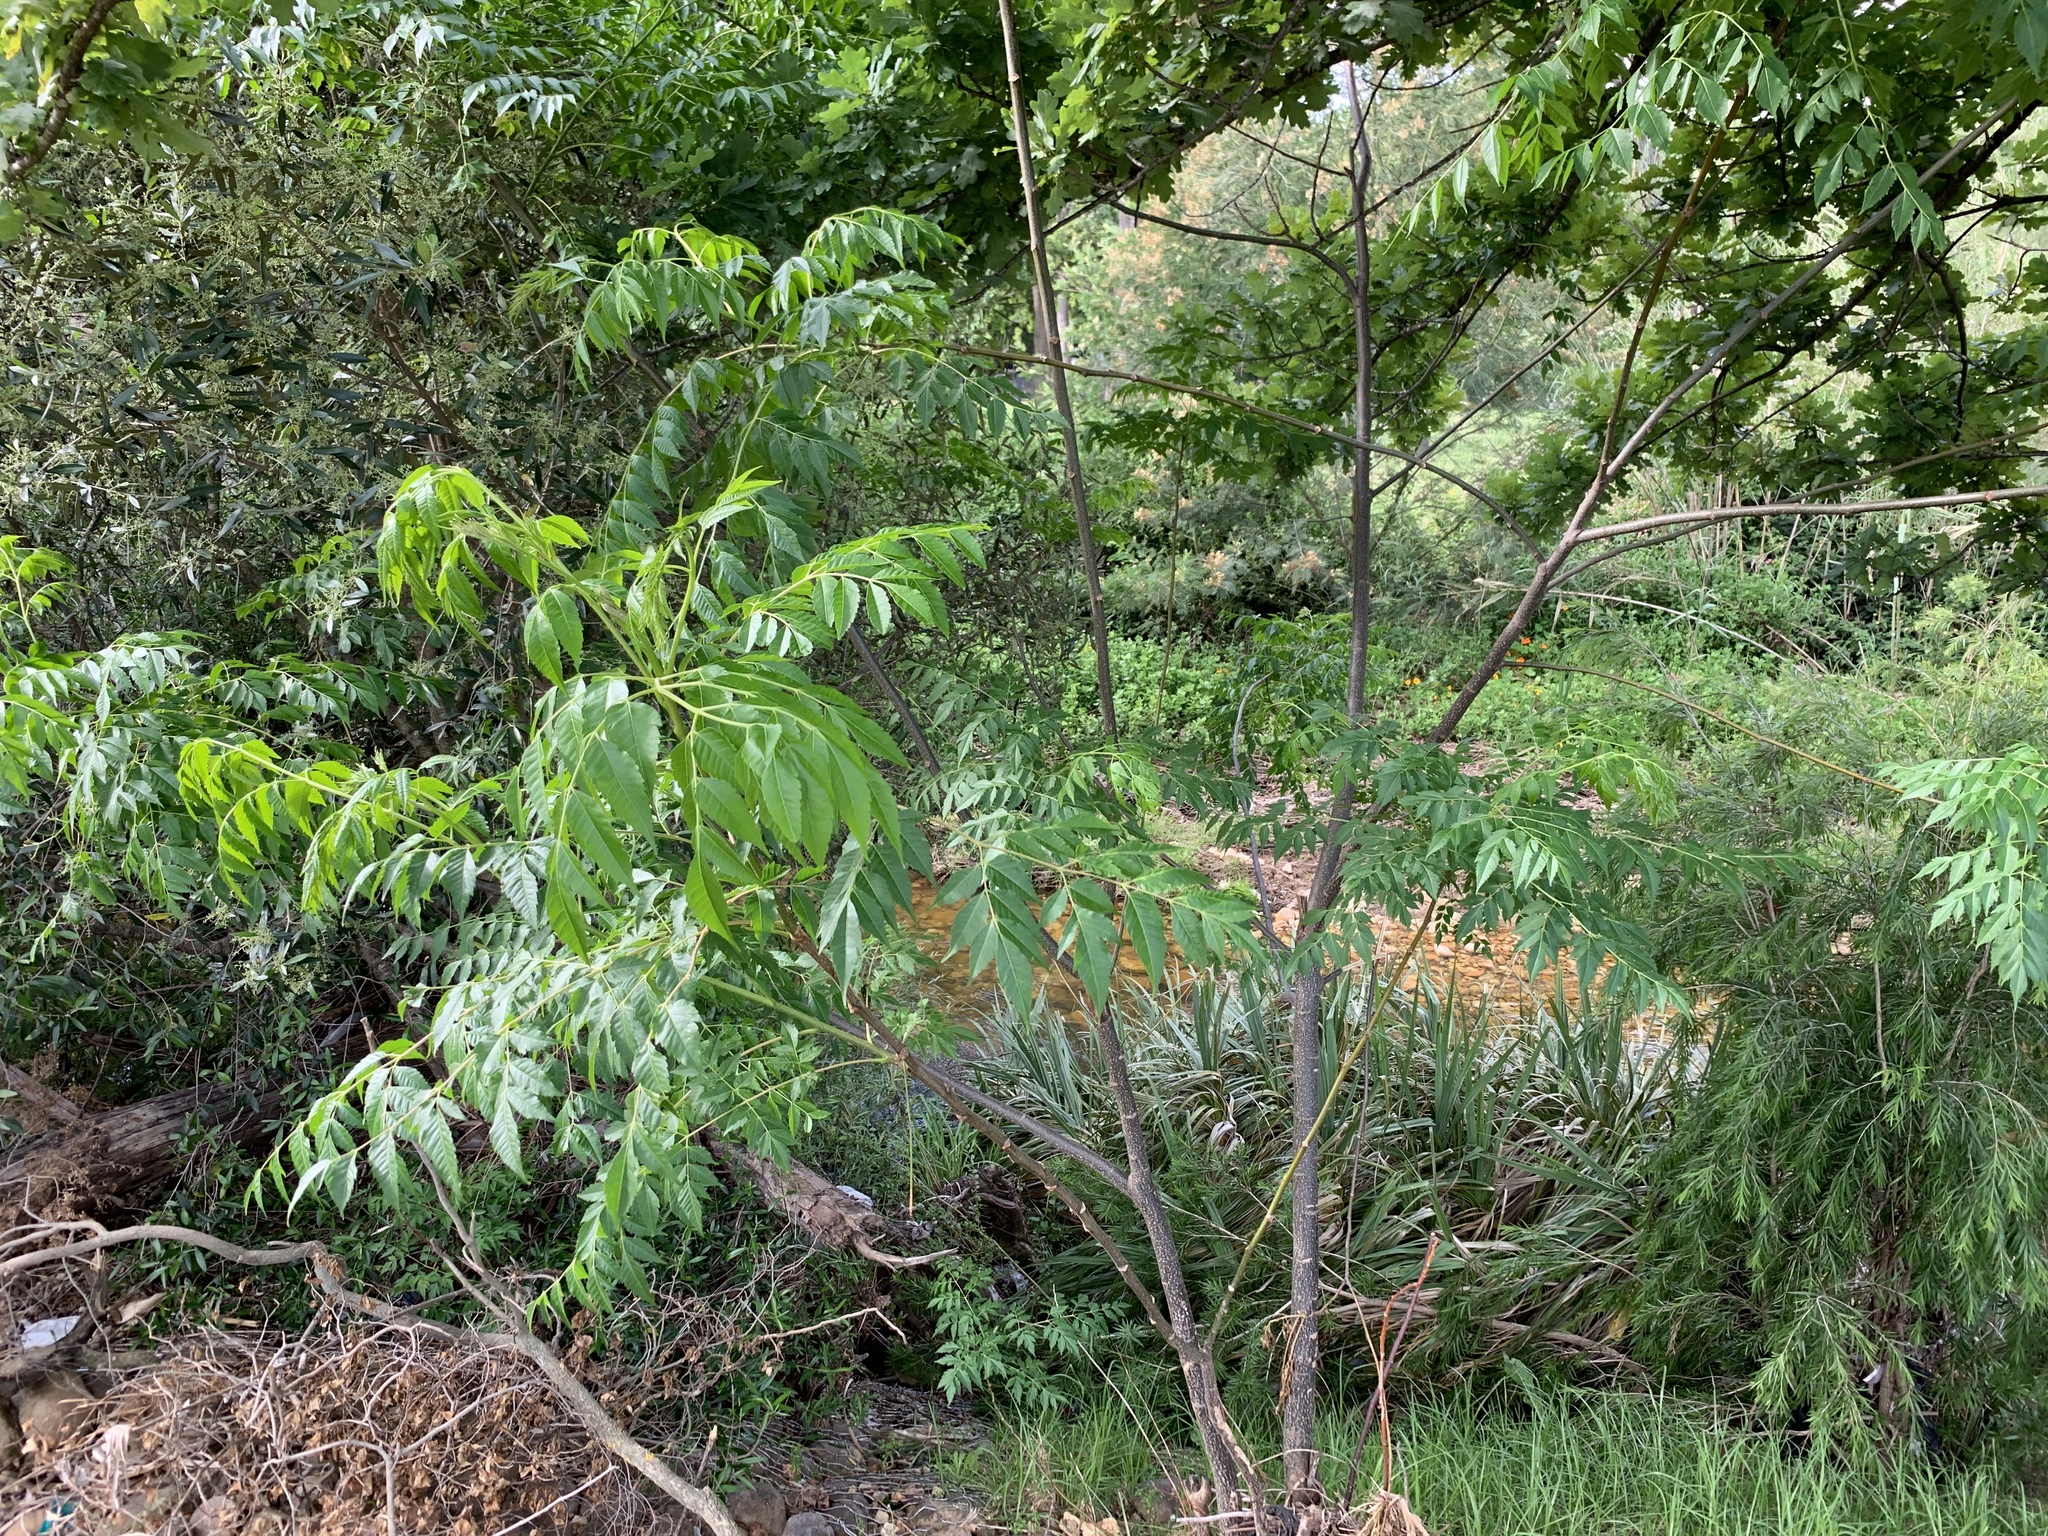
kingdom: Plantae
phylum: Tracheophyta
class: Magnoliopsida
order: Sapindales
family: Meliaceae
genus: Melia
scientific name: Melia azedarach
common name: Chinaberrytree
